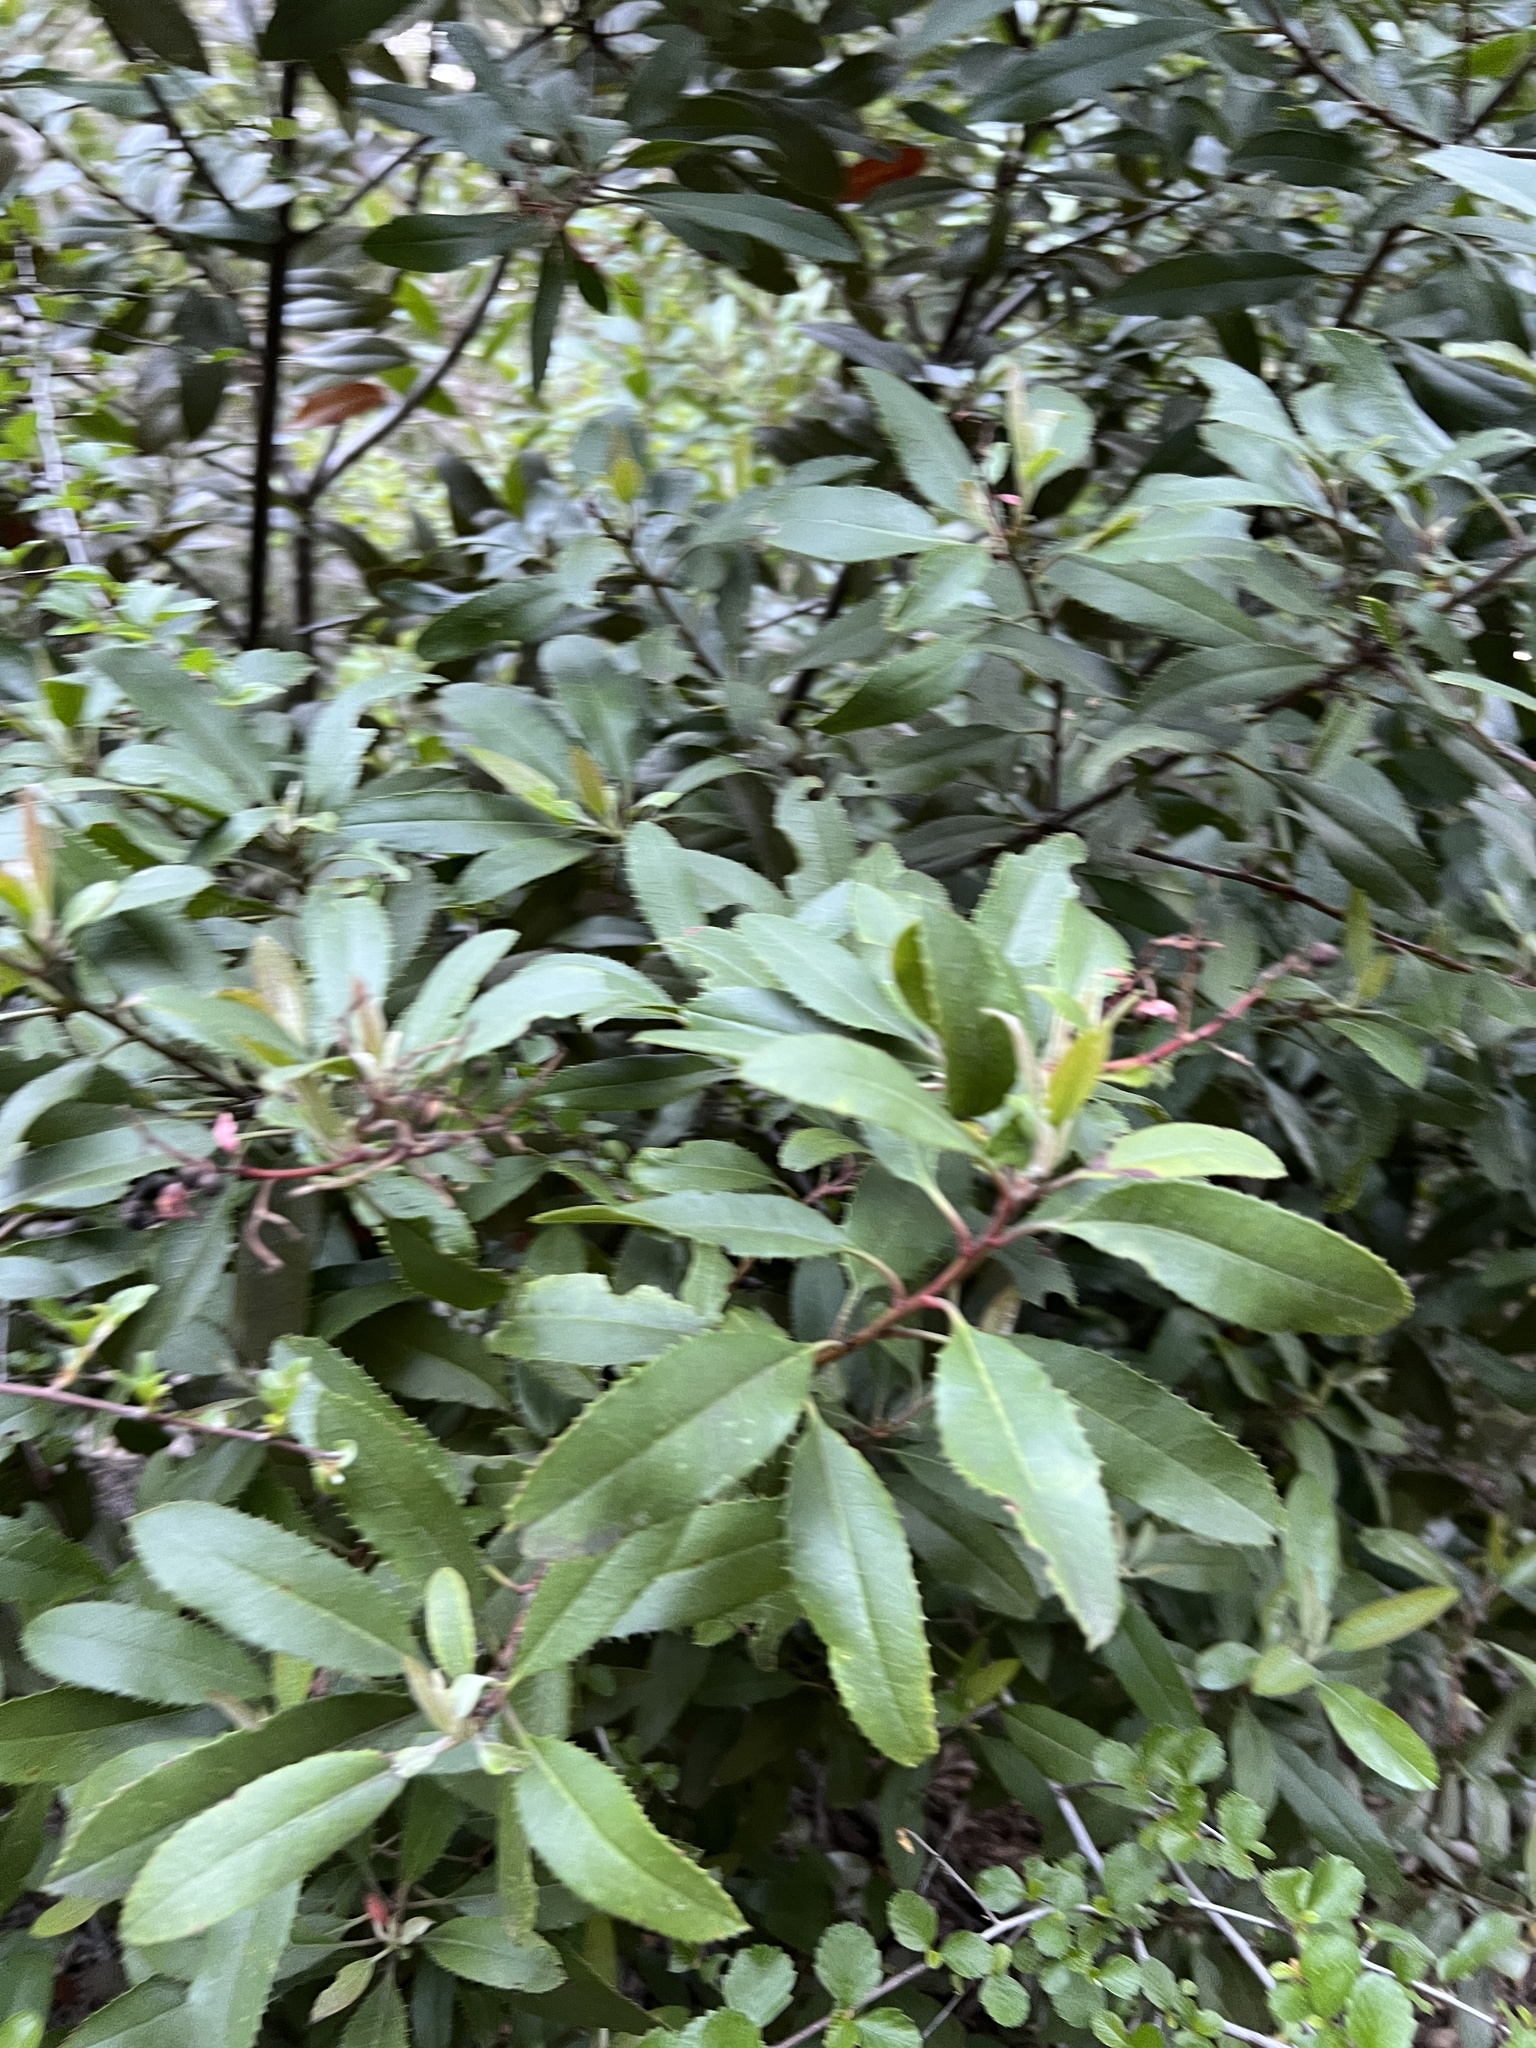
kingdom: Plantae
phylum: Tracheophyta
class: Magnoliopsida
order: Rosales
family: Rosaceae
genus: Heteromeles
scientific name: Heteromeles arbutifolia
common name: California-holly
